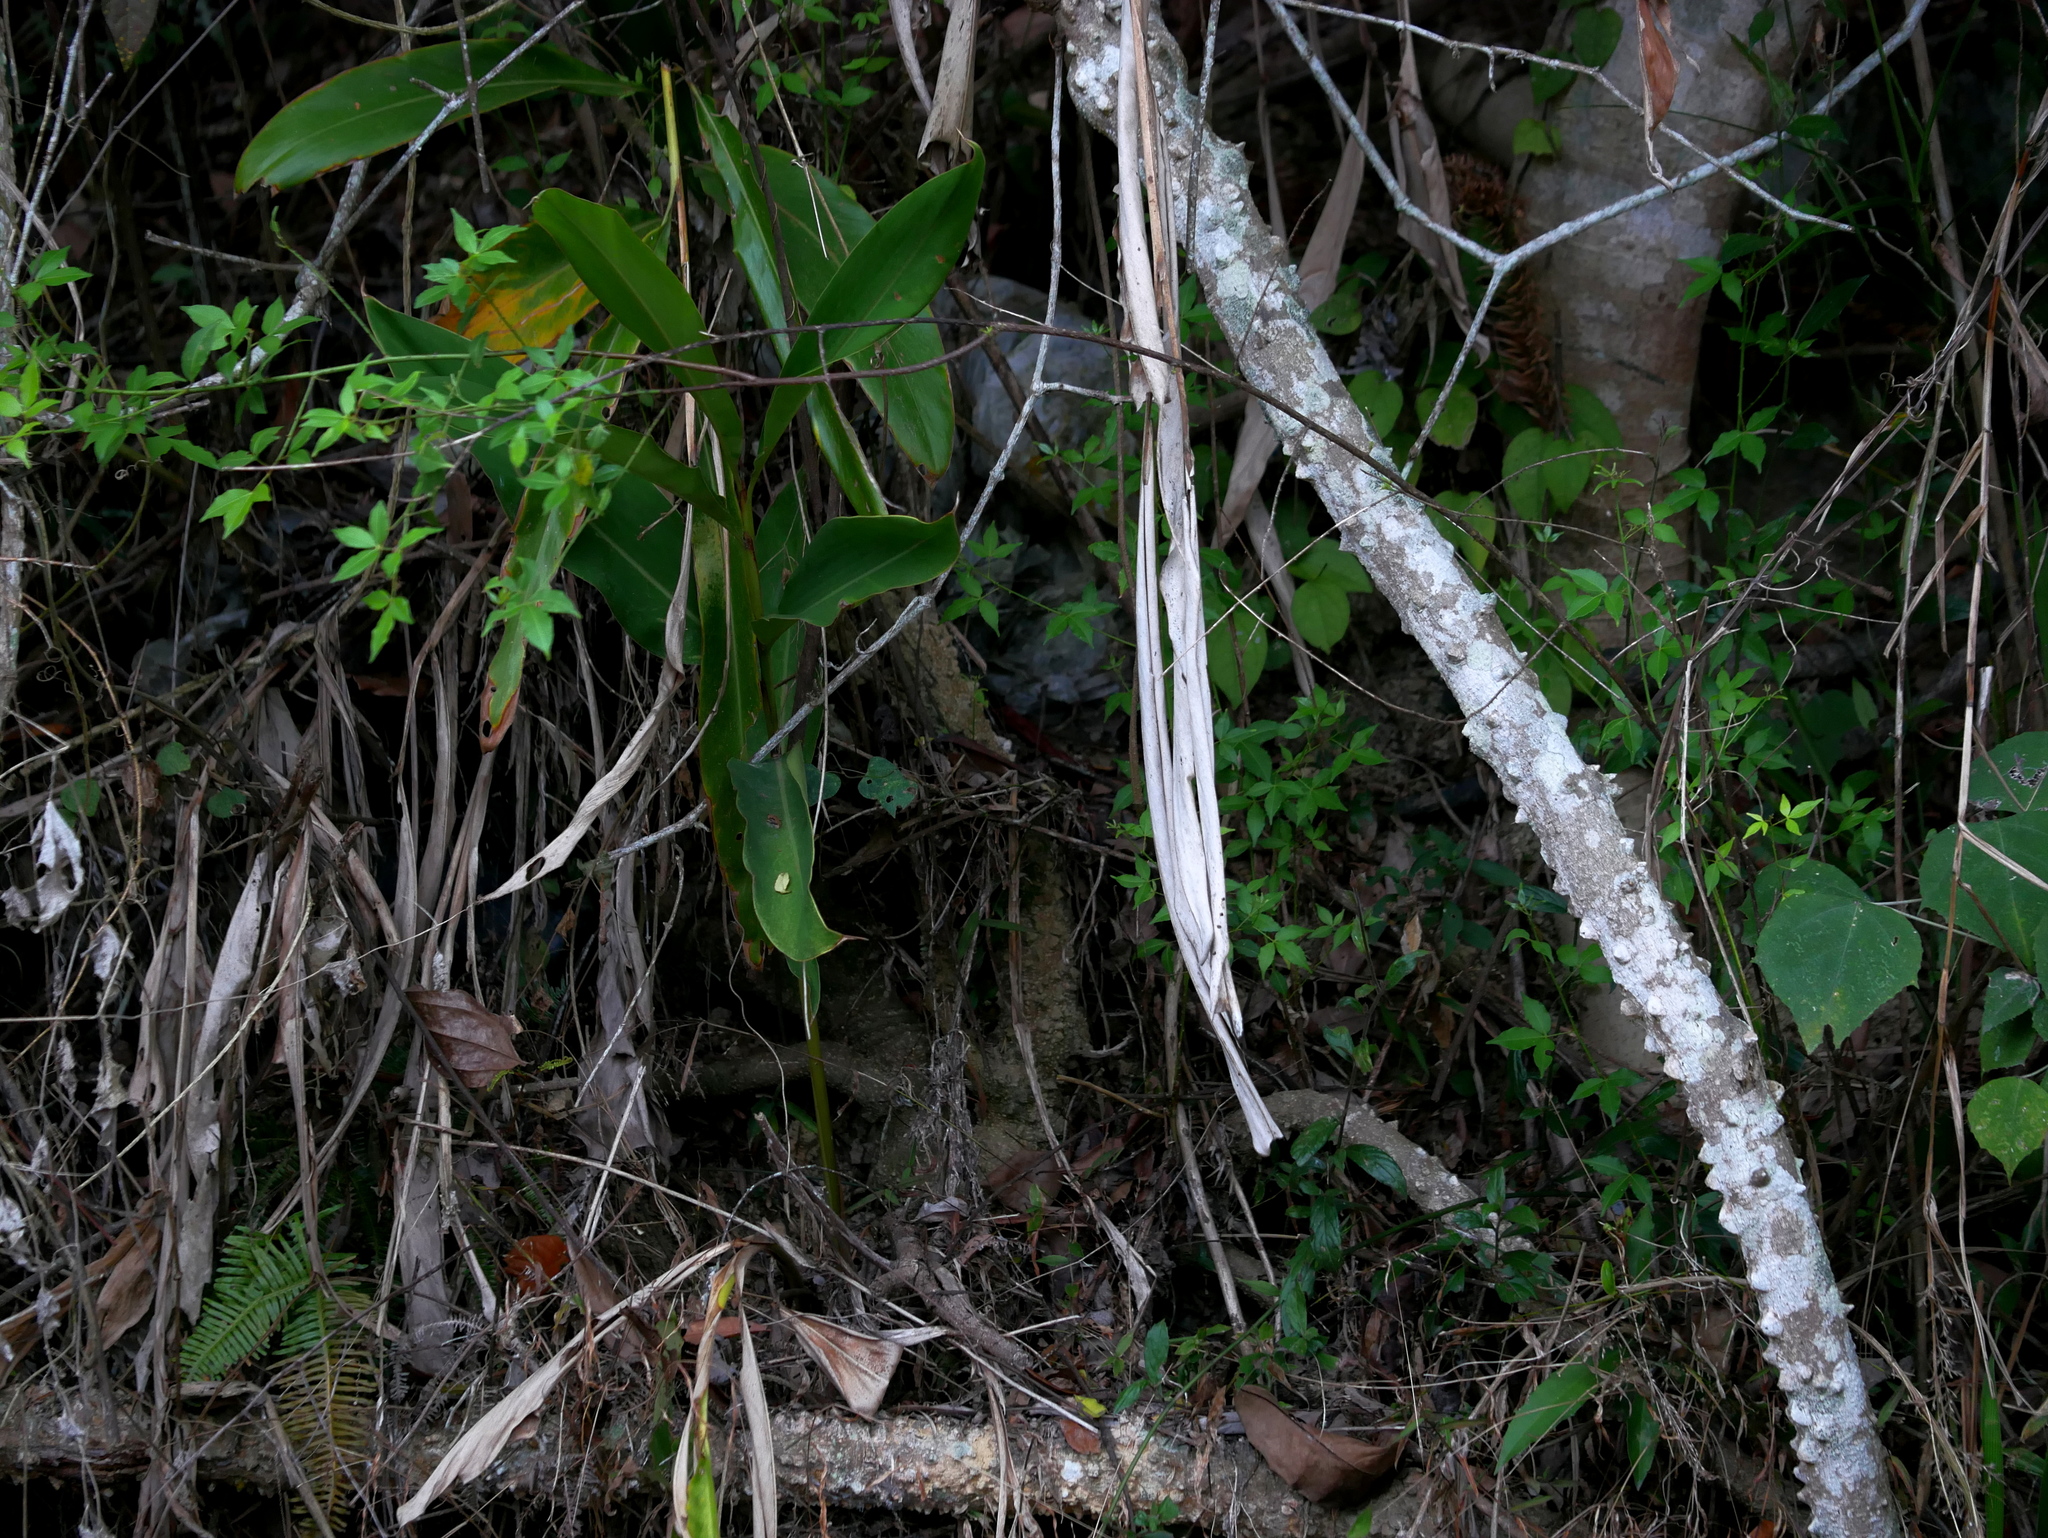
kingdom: Plantae
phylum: Tracheophyta
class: Magnoliopsida
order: Sapindales
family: Rutaceae
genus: Zanthoxylum
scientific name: Zanthoxylum asiaticum
